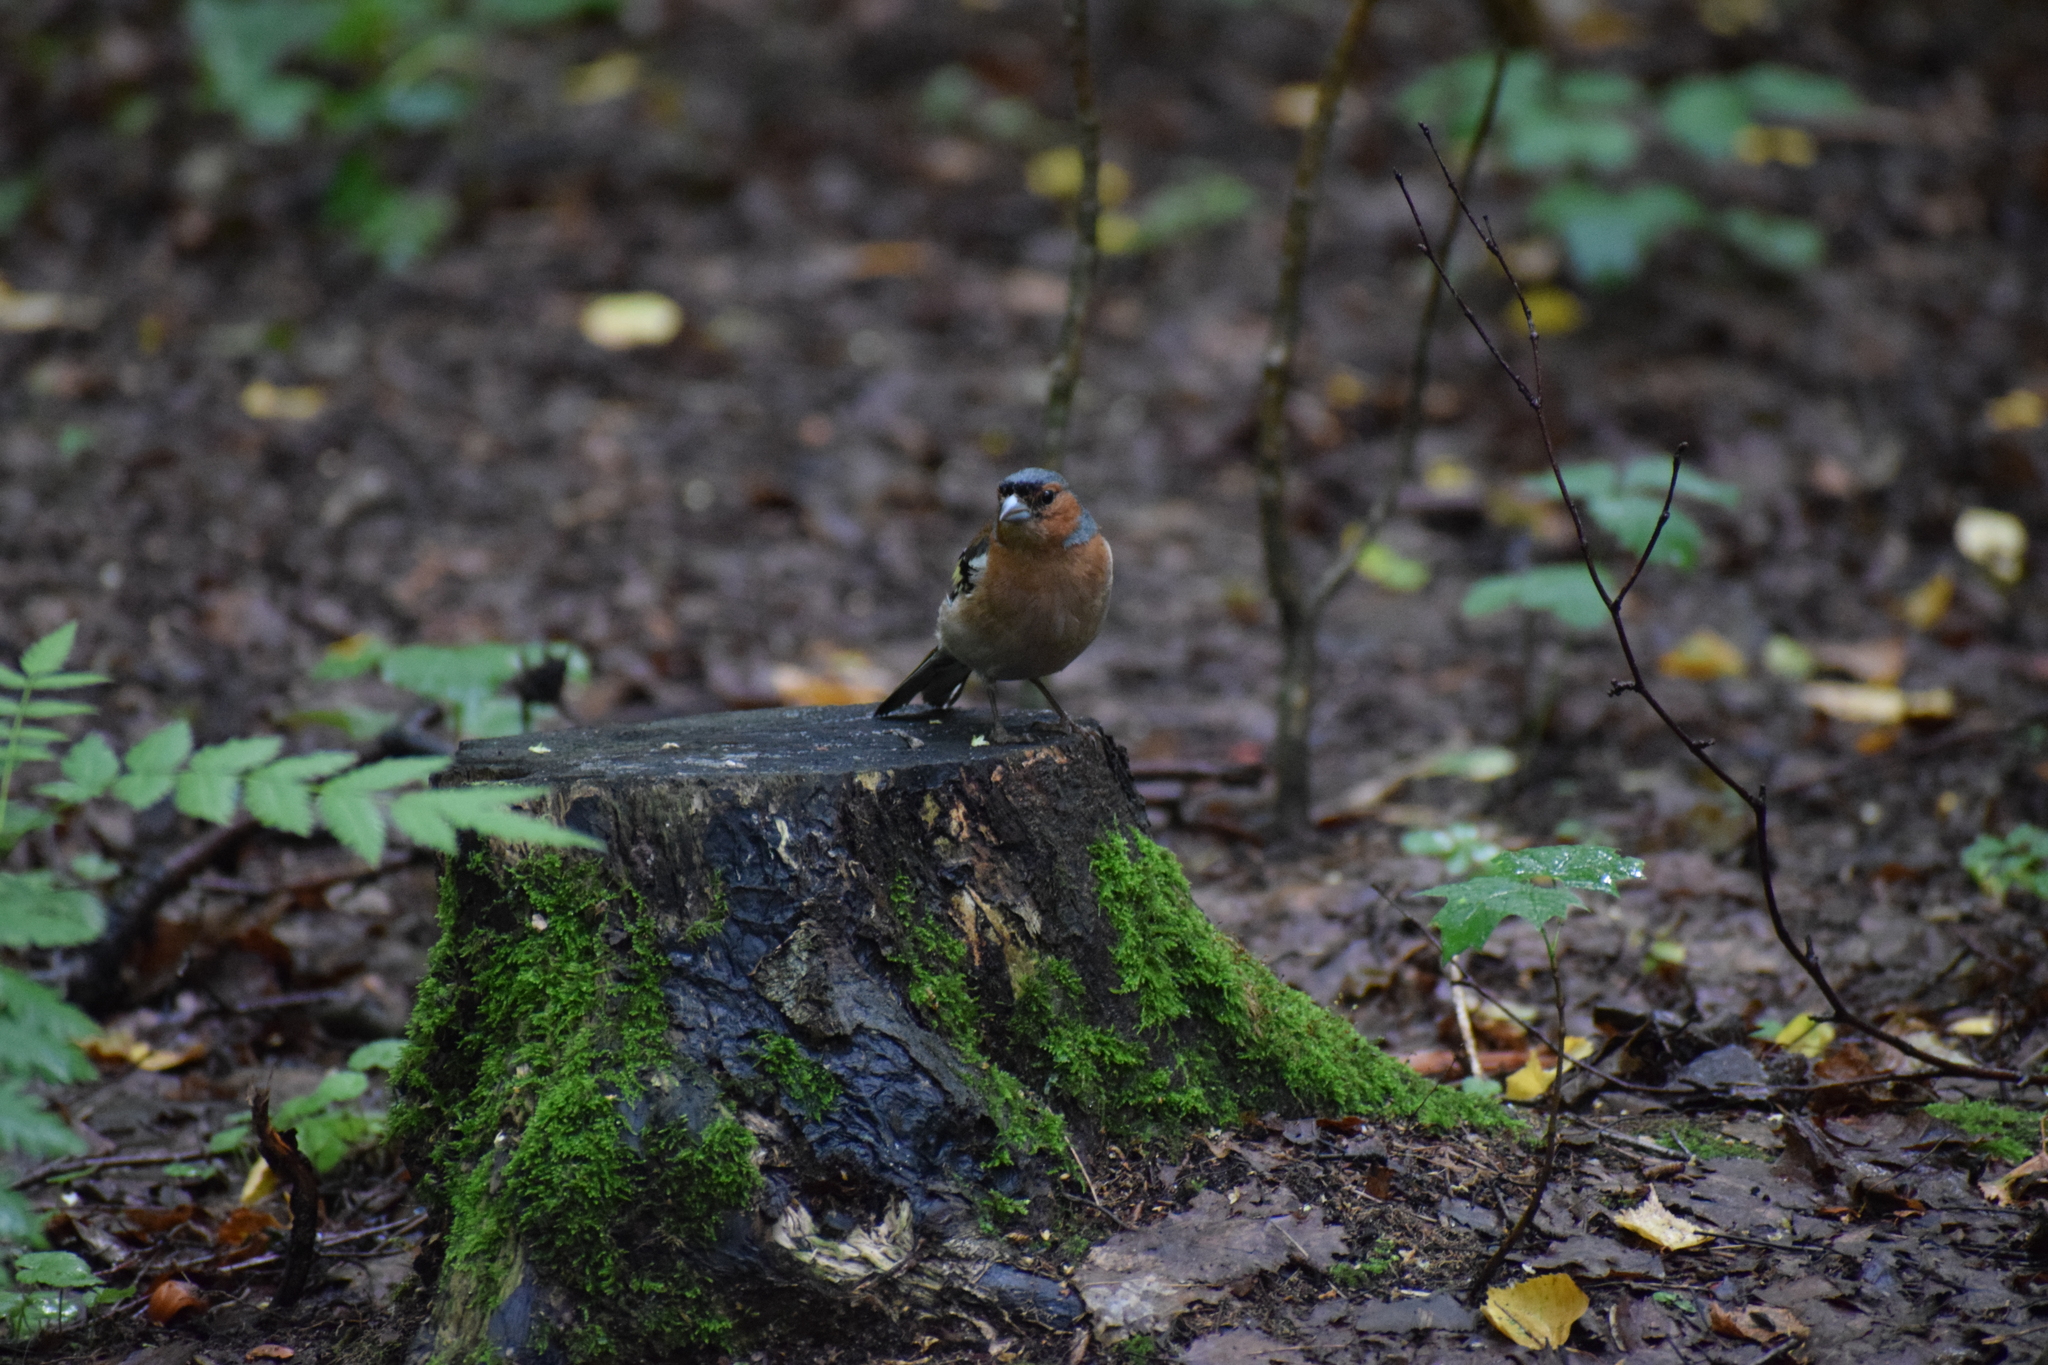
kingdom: Animalia
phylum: Chordata
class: Aves
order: Passeriformes
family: Fringillidae
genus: Fringilla
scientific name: Fringilla coelebs
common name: Common chaffinch
